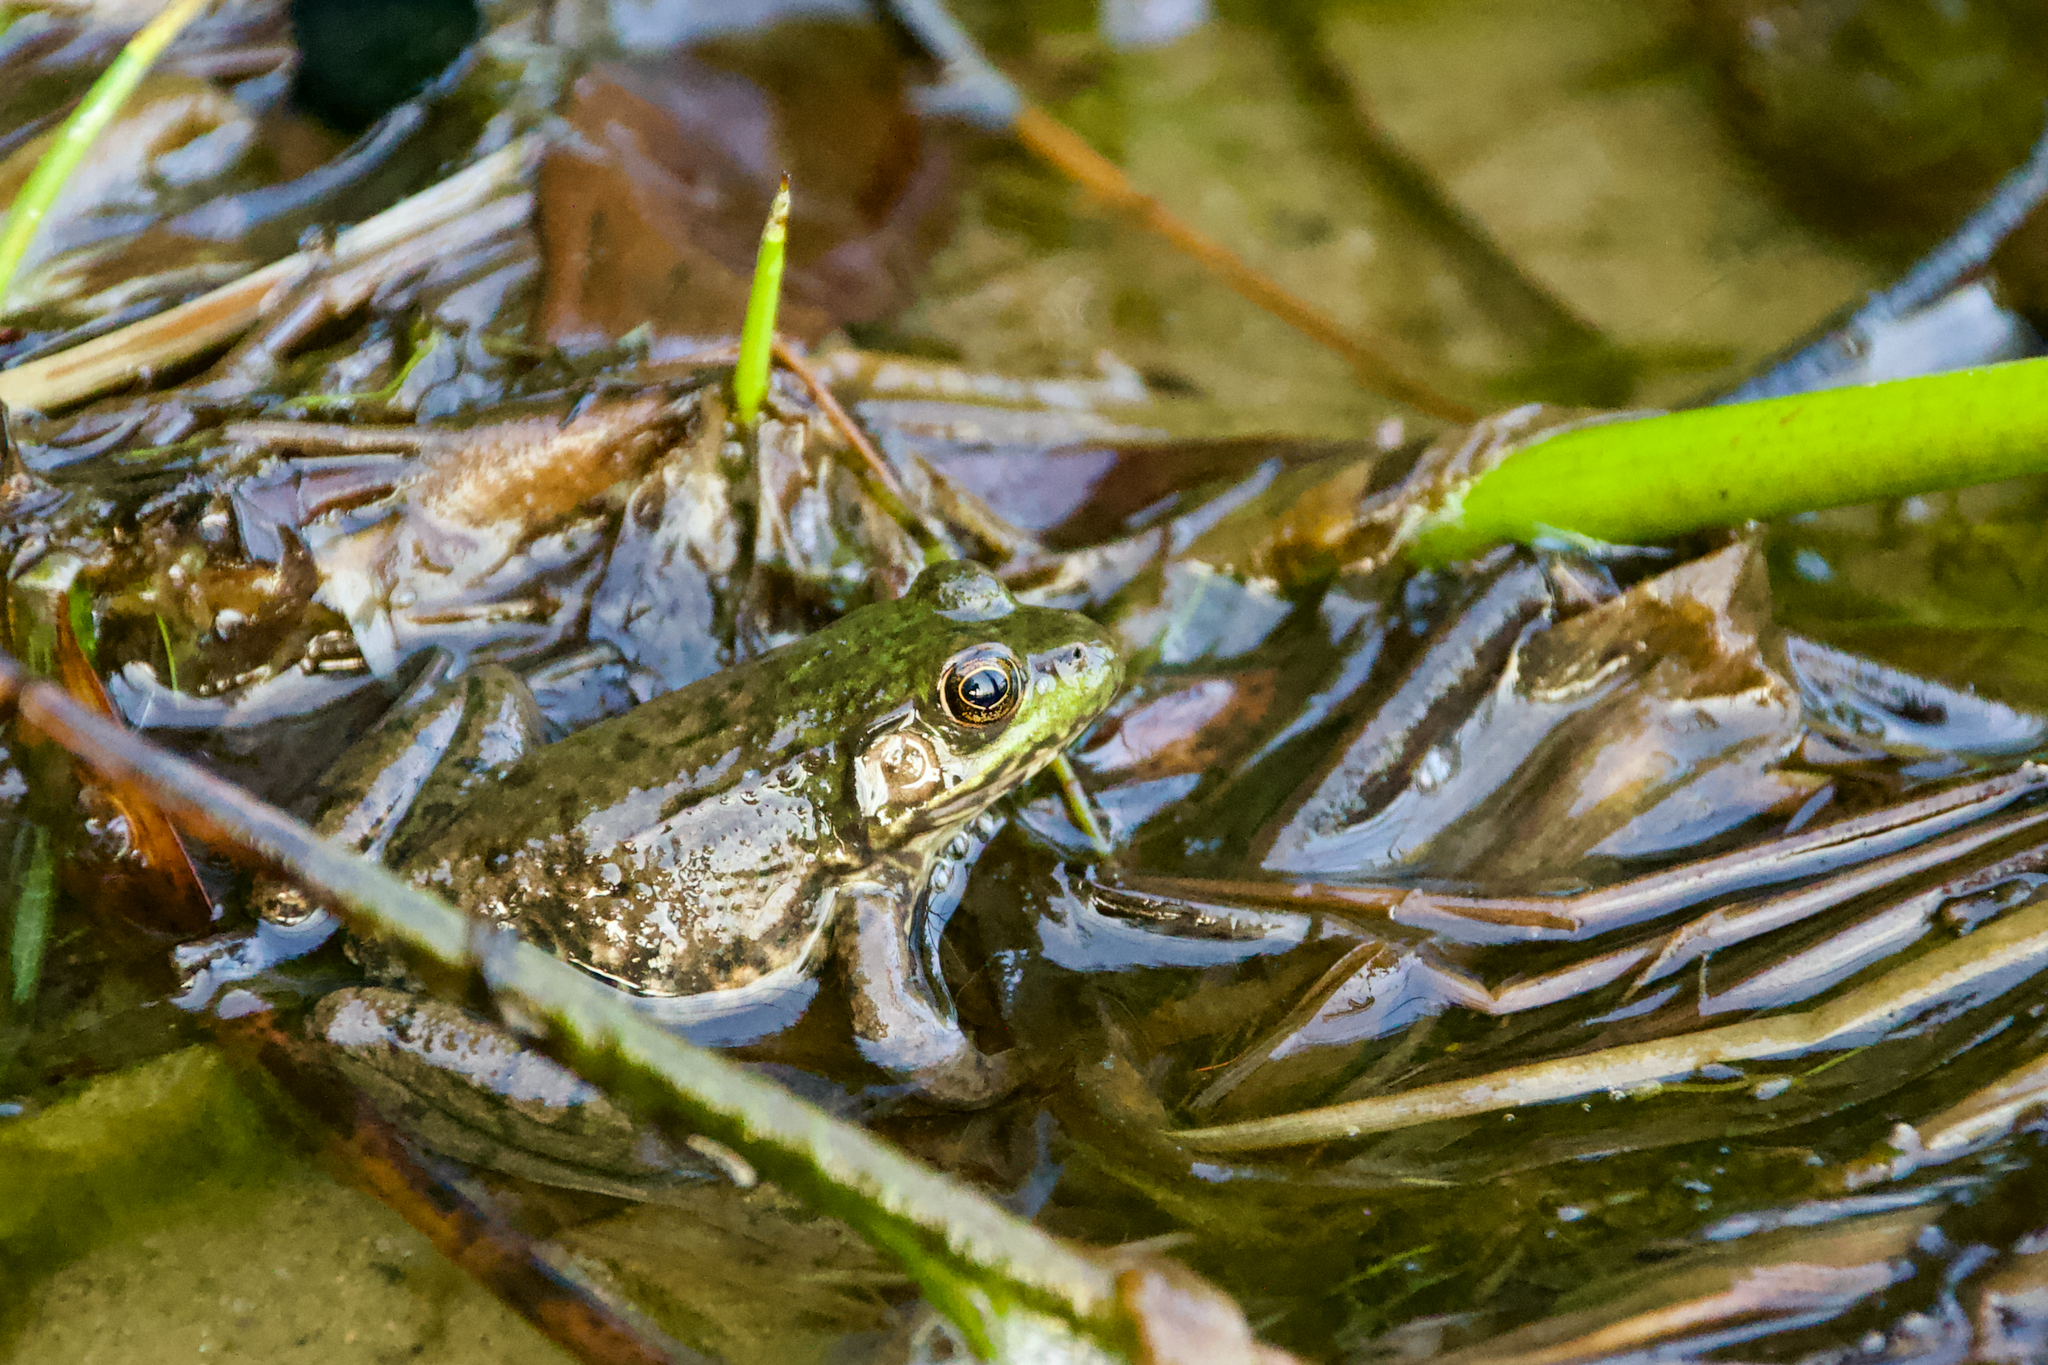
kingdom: Animalia
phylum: Chordata
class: Amphibia
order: Anura
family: Ranidae
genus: Lithobates
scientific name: Lithobates clamitans
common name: Green frog
